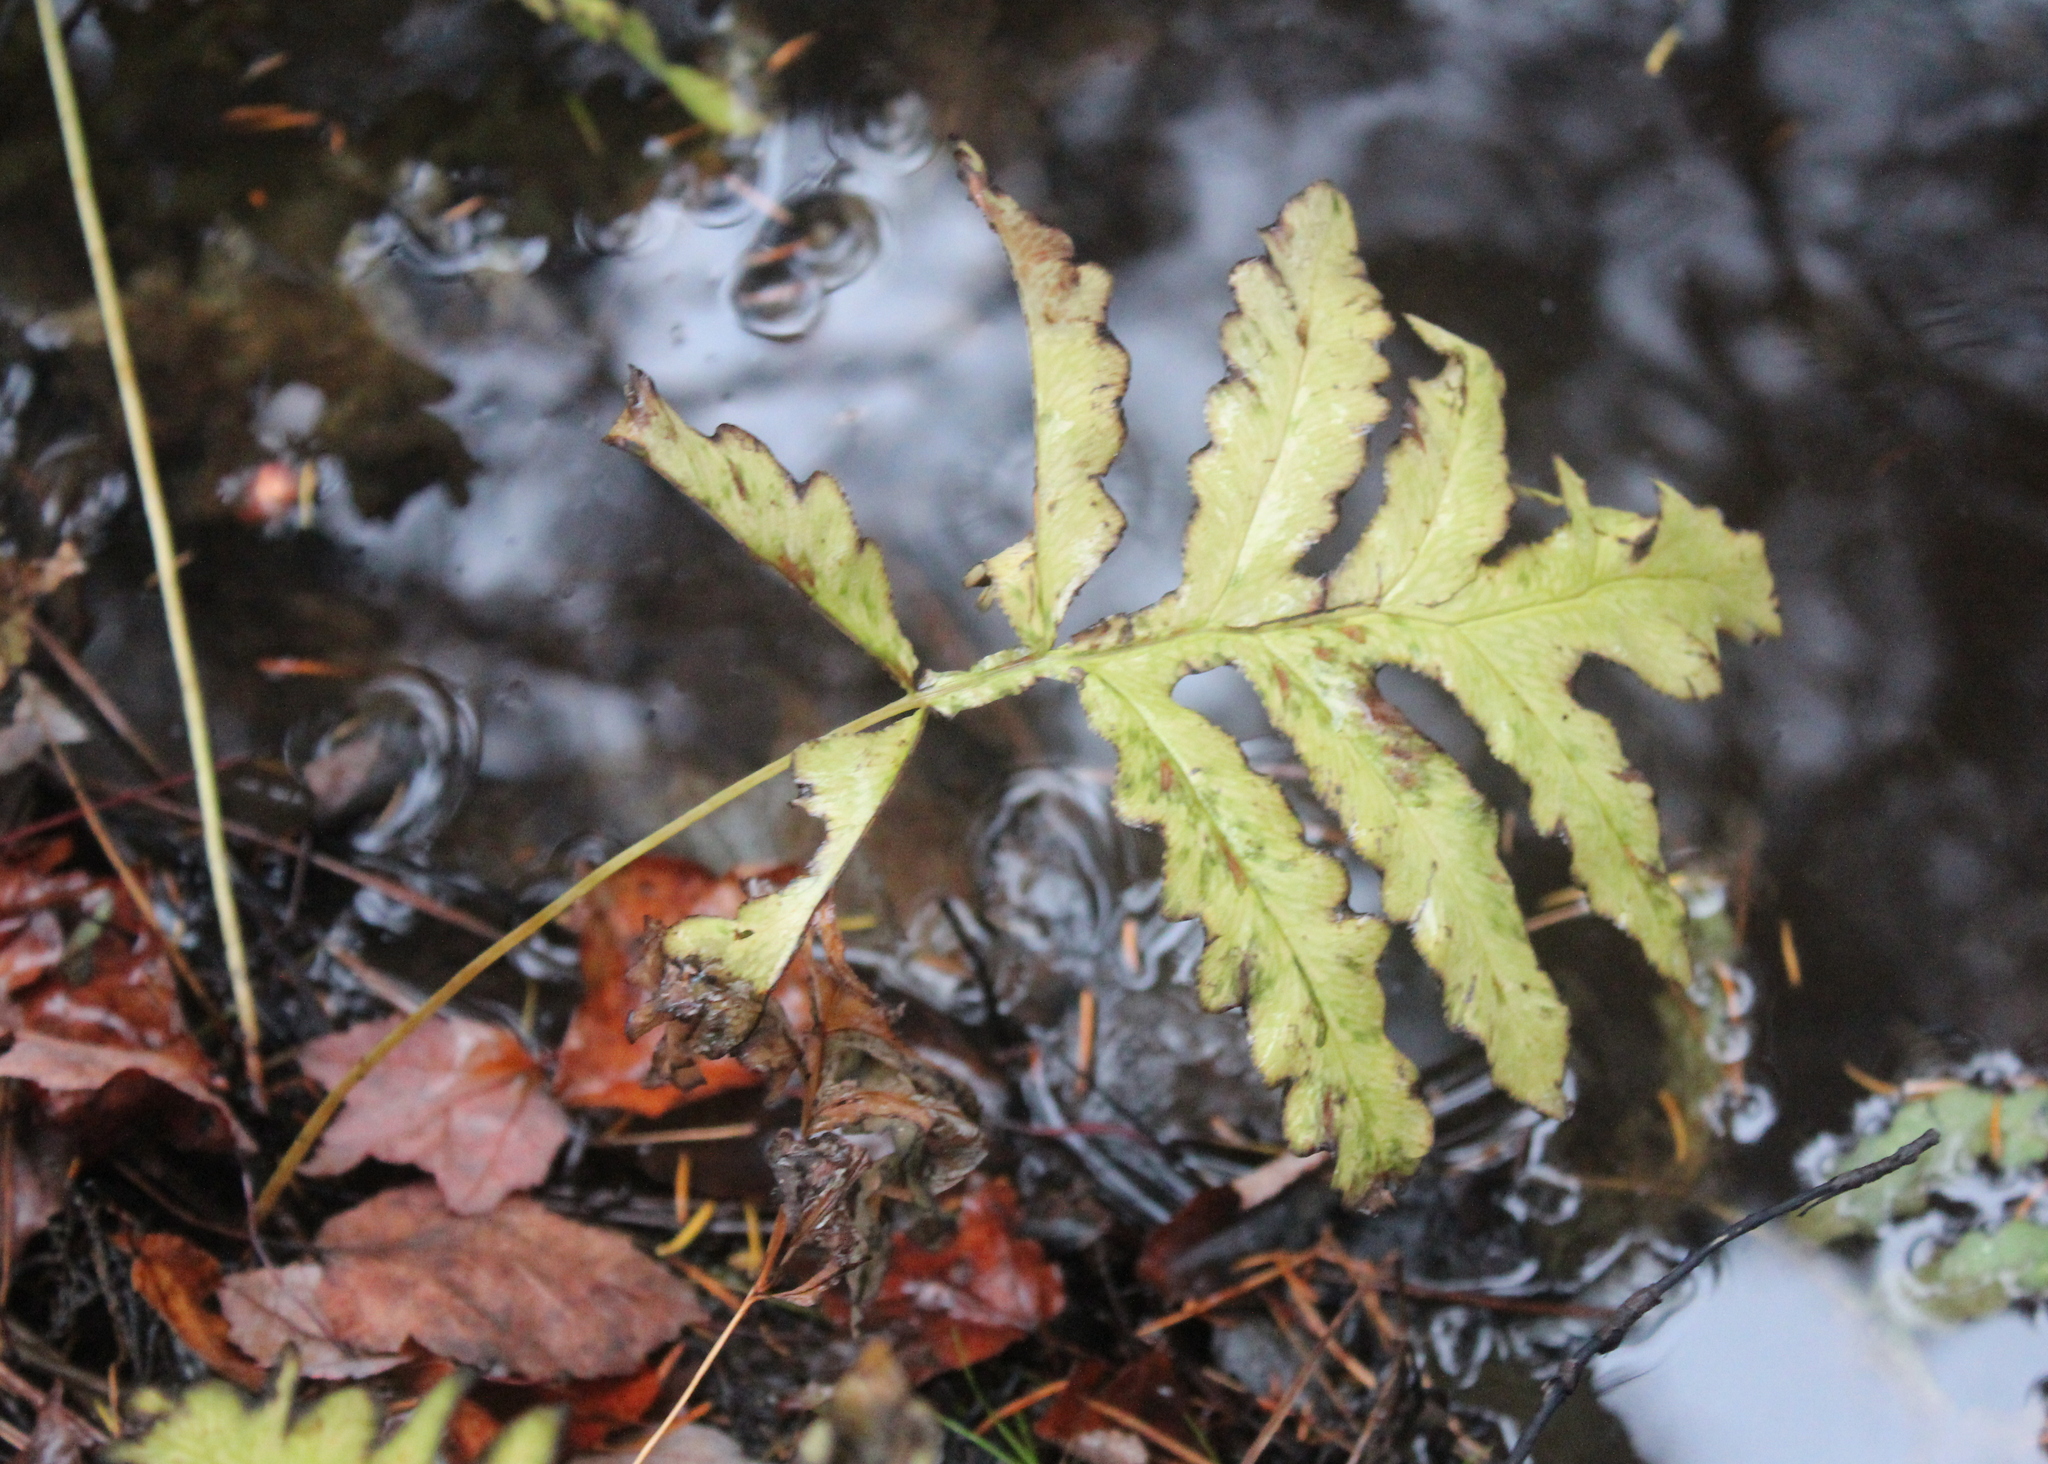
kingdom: Plantae
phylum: Tracheophyta
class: Polypodiopsida
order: Polypodiales
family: Onocleaceae
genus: Onoclea
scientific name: Onoclea sensibilis
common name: Sensitive fern
